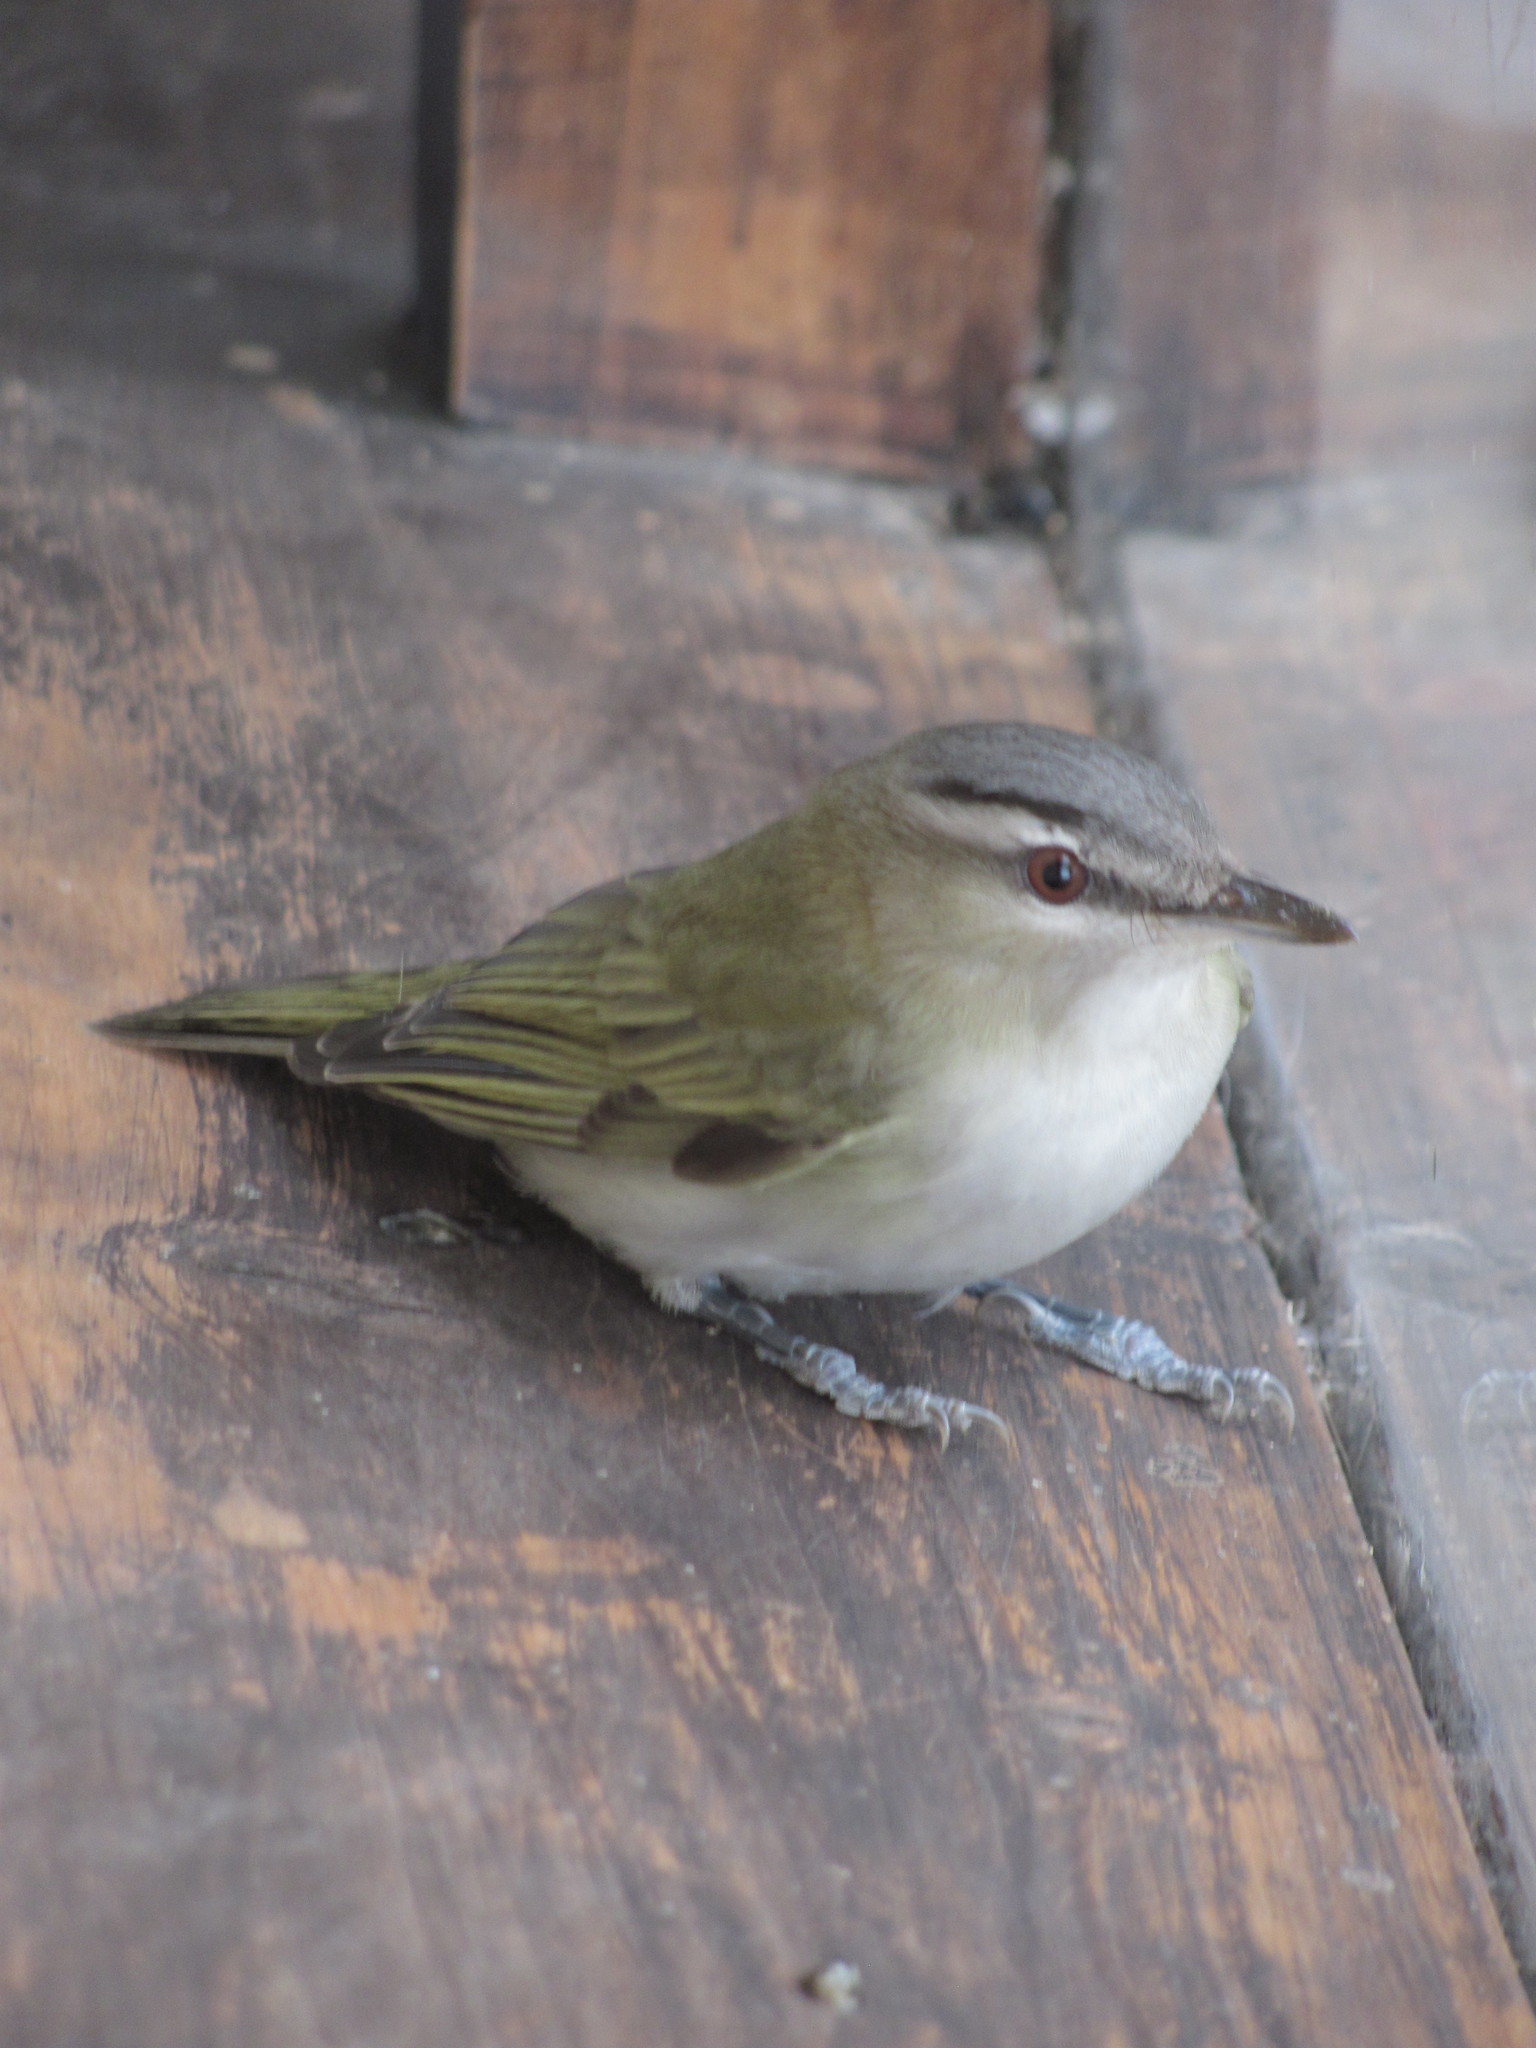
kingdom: Animalia
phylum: Chordata
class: Aves
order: Passeriformes
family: Vireonidae
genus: Vireo
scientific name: Vireo olivaceus
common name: Red-eyed vireo
